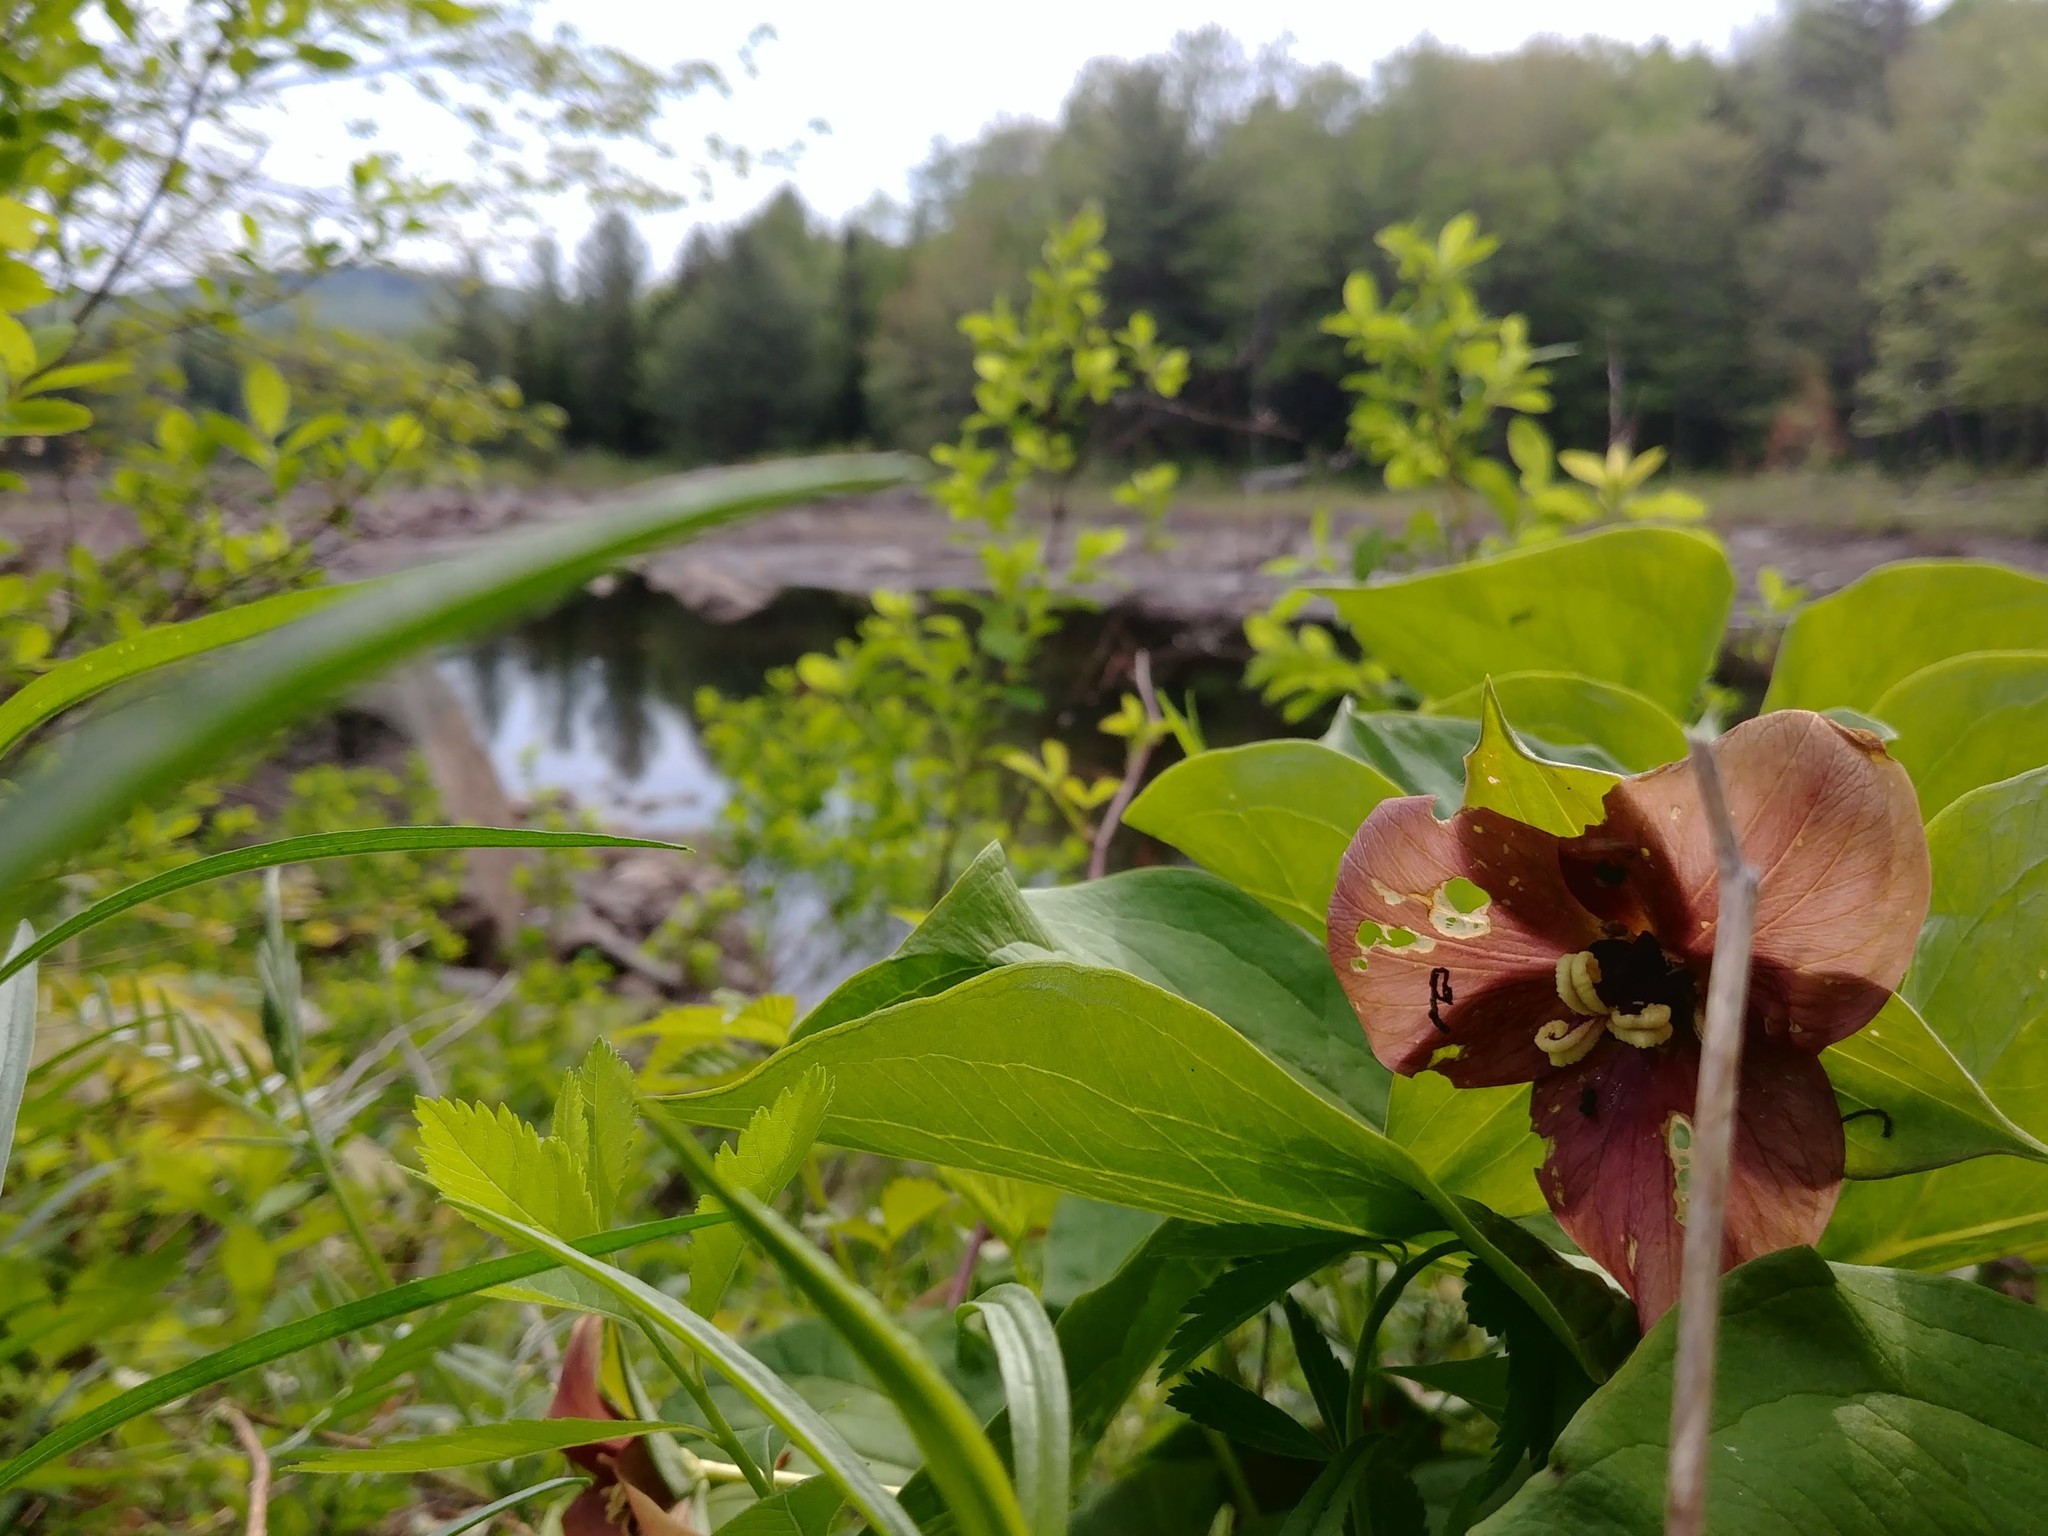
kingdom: Plantae
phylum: Tracheophyta
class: Liliopsida
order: Liliales
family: Melanthiaceae
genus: Trillium
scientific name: Trillium erectum
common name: Purple trillium
